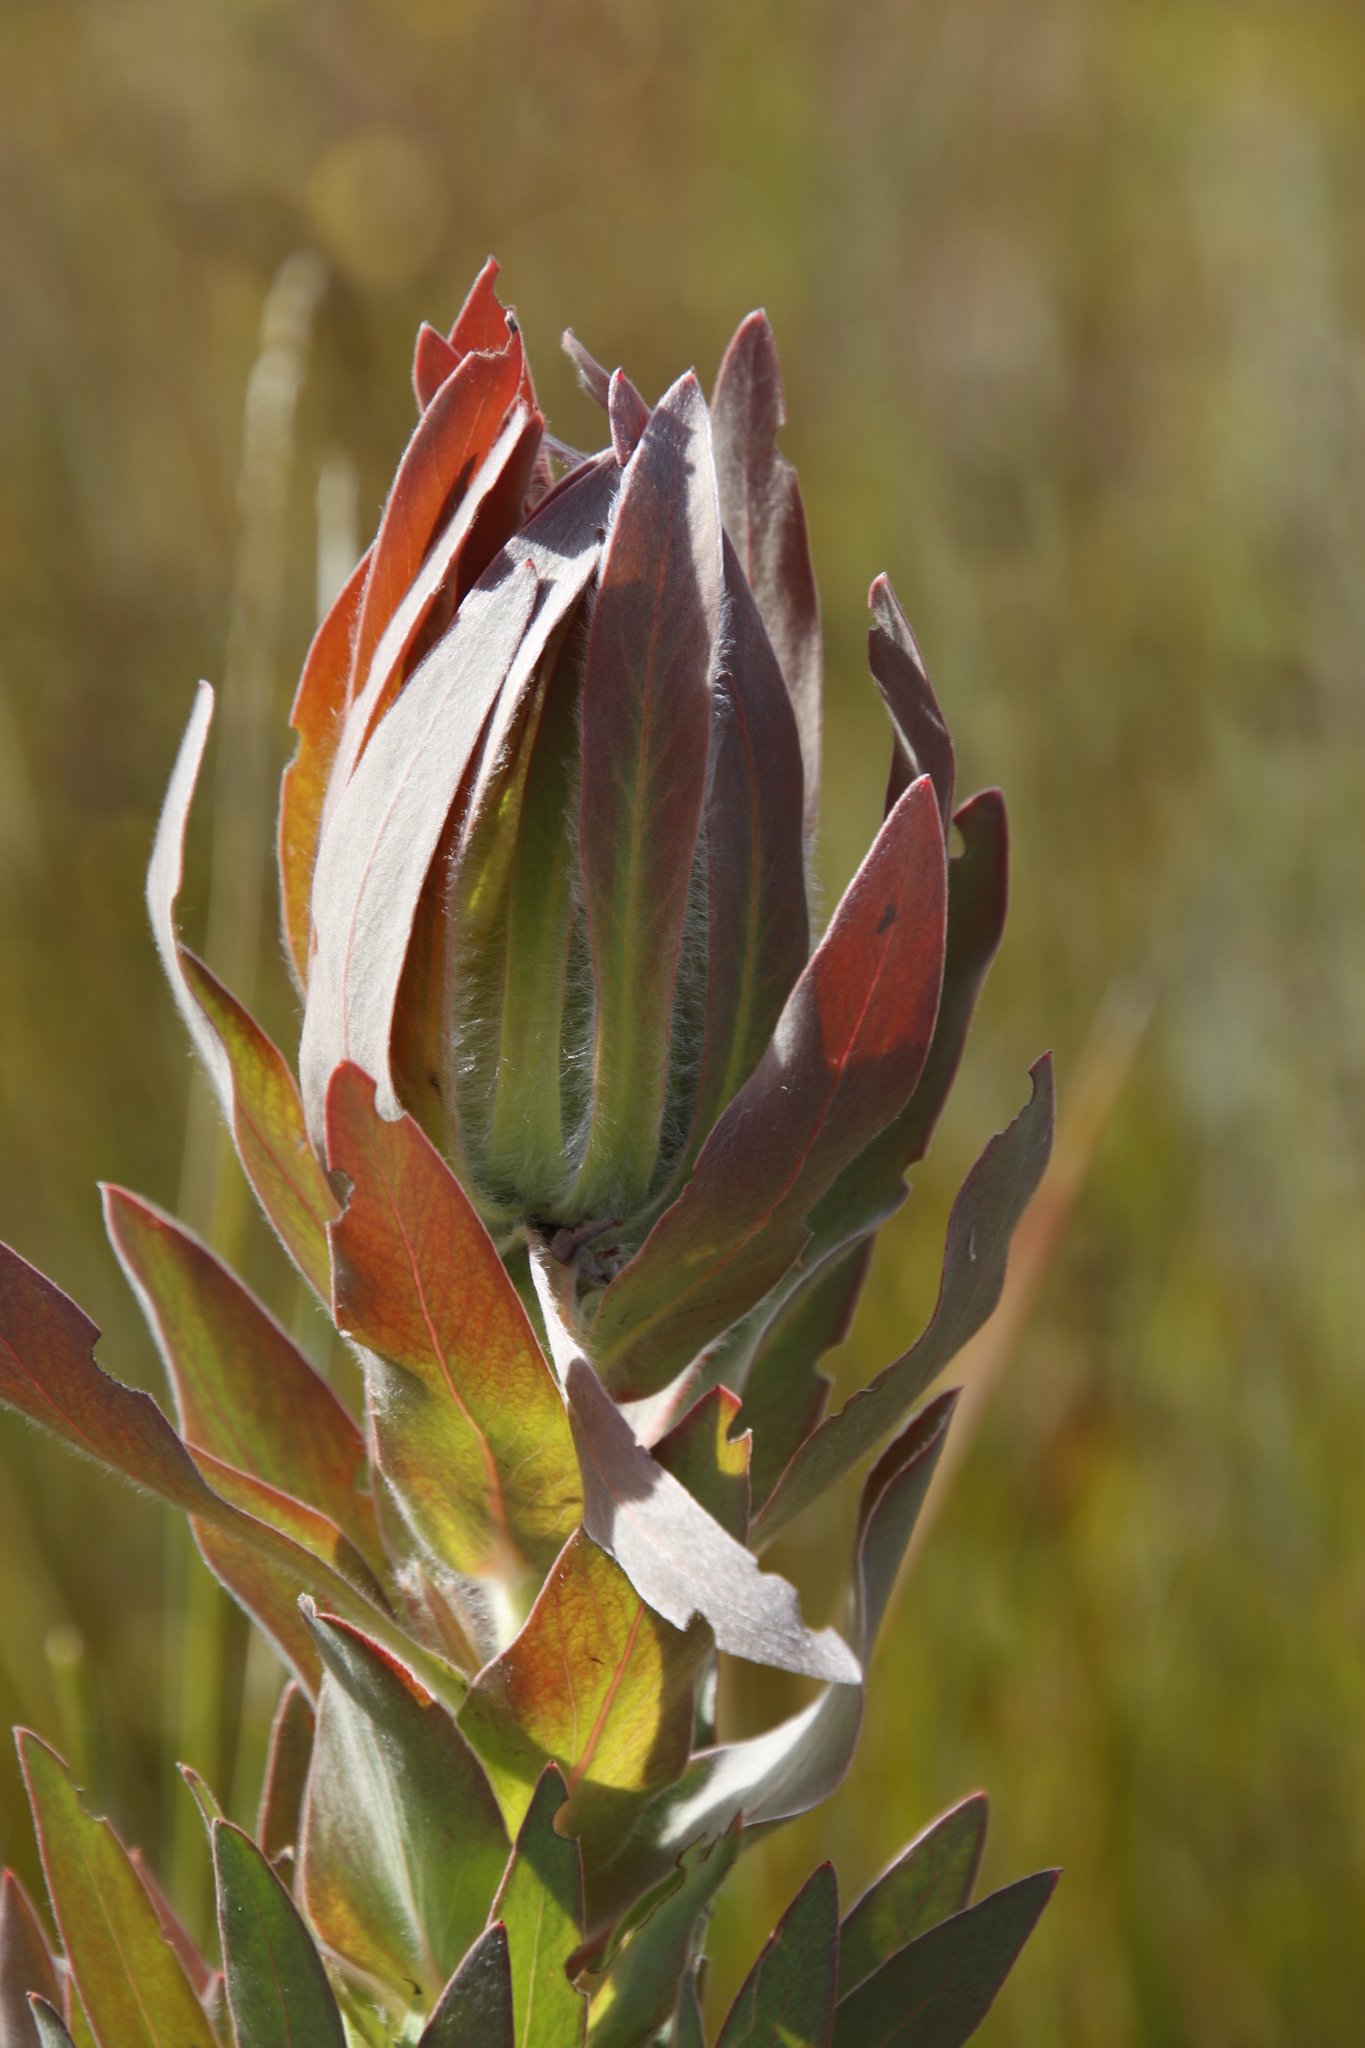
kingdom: Plantae
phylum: Tracheophyta
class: Magnoliopsida
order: Proteales
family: Proteaceae
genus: Protea
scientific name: Protea coronata
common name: Green sugarbush
